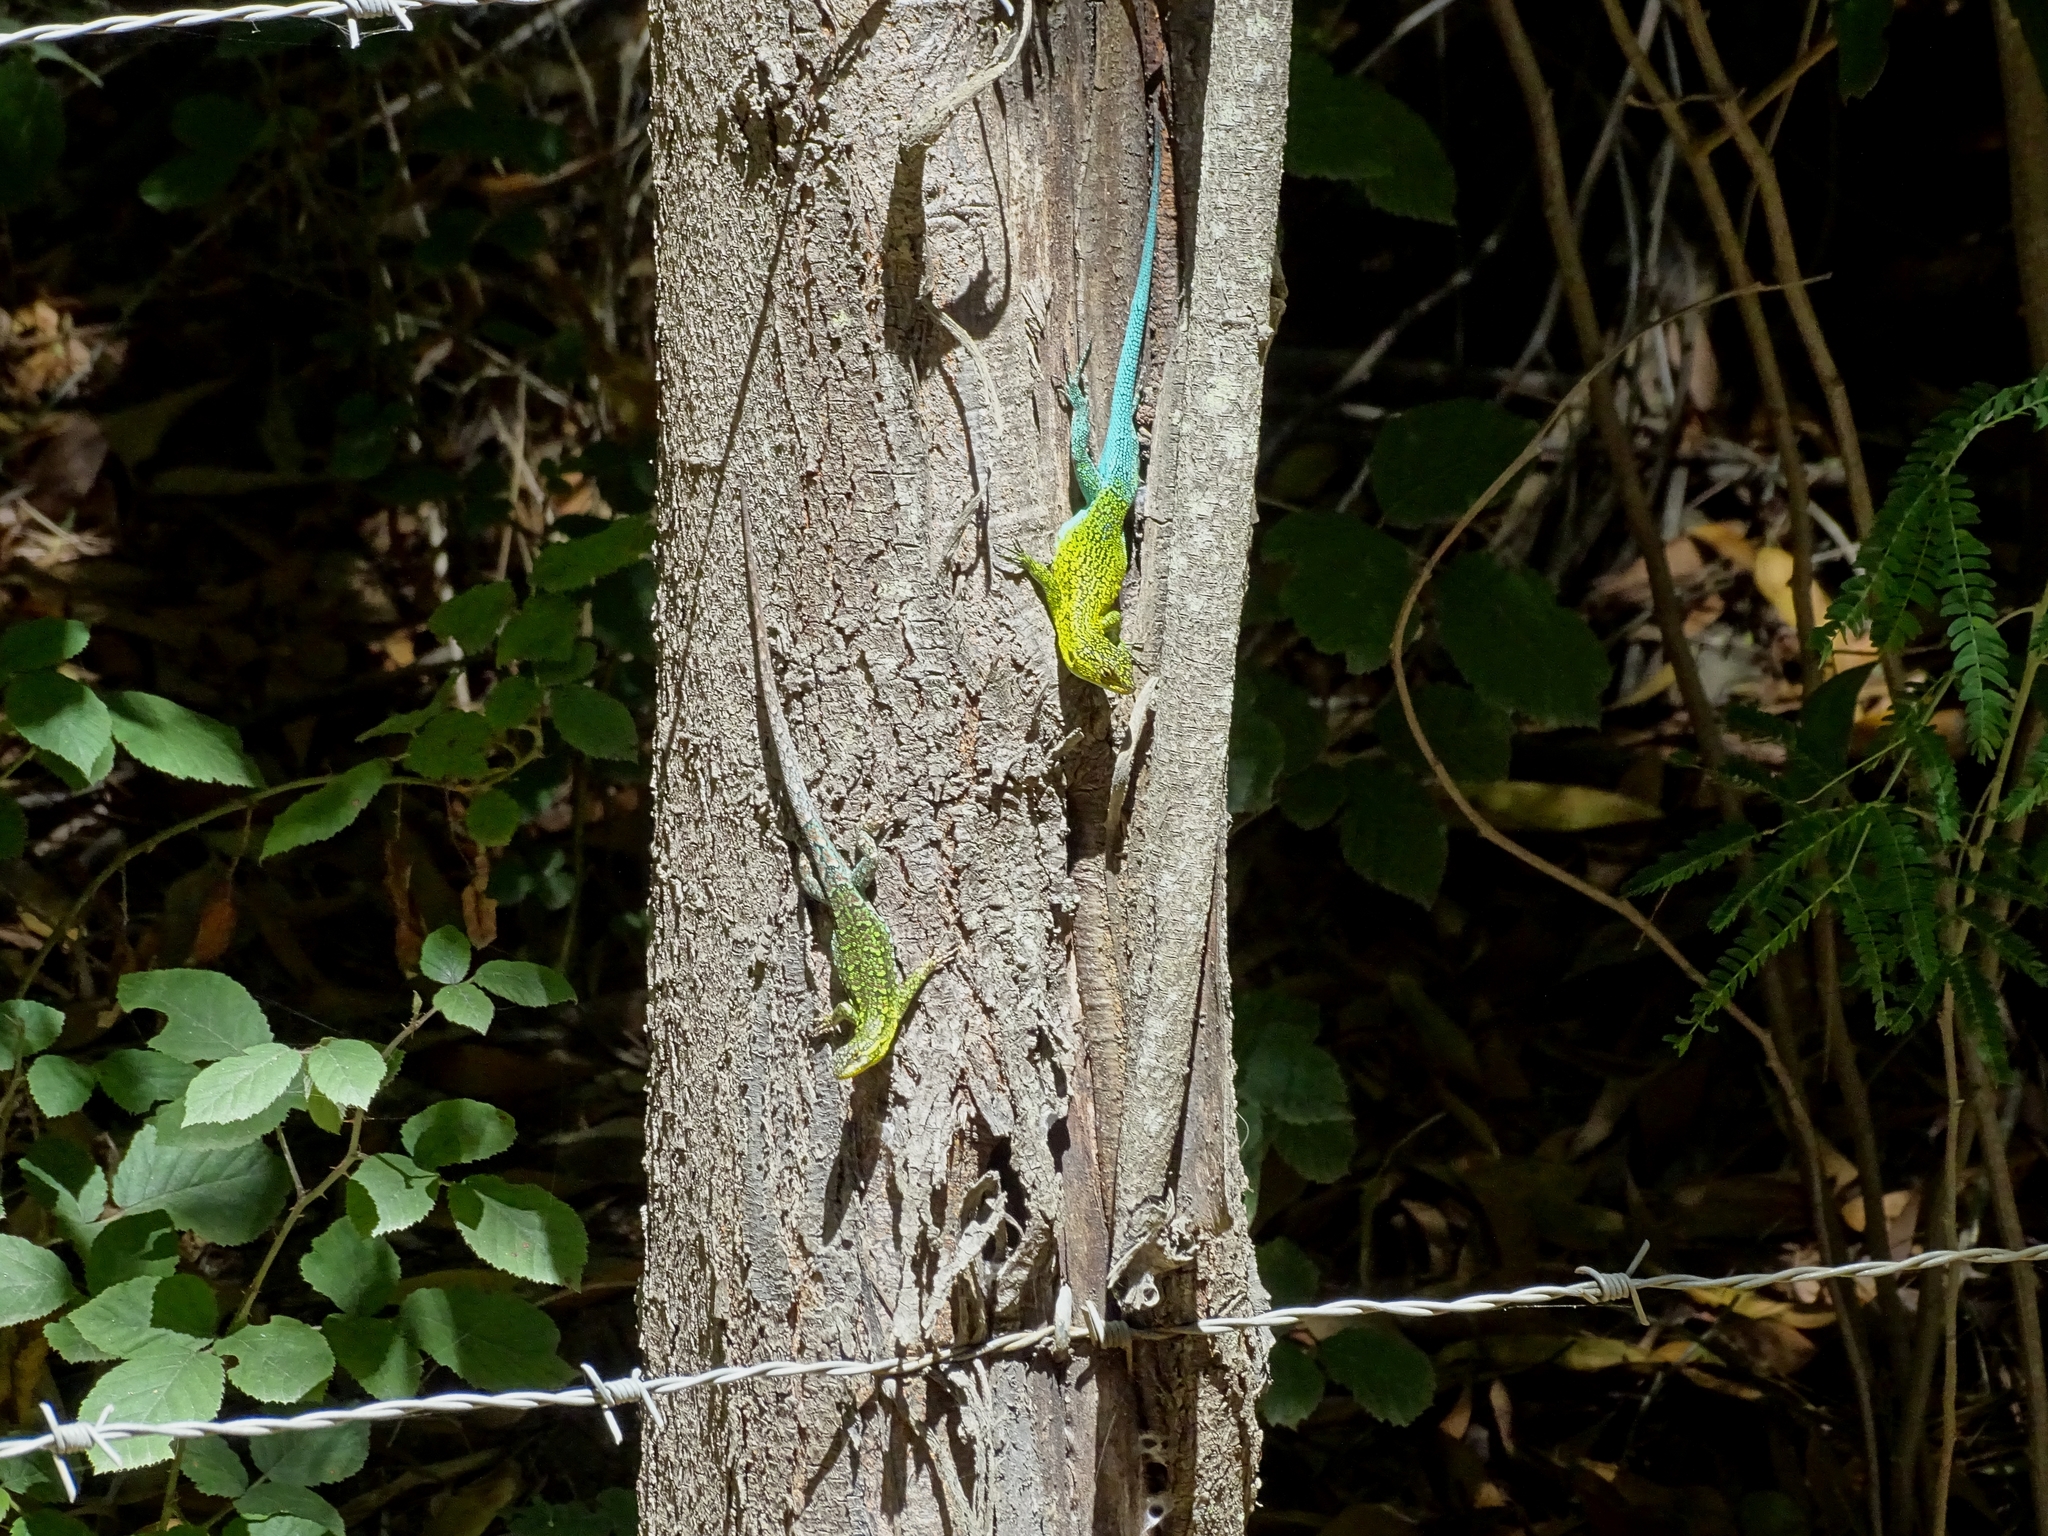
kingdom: Animalia
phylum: Chordata
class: Squamata
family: Liolaemidae
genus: Liolaemus
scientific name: Liolaemus tenuis
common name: Thin tree iguana
